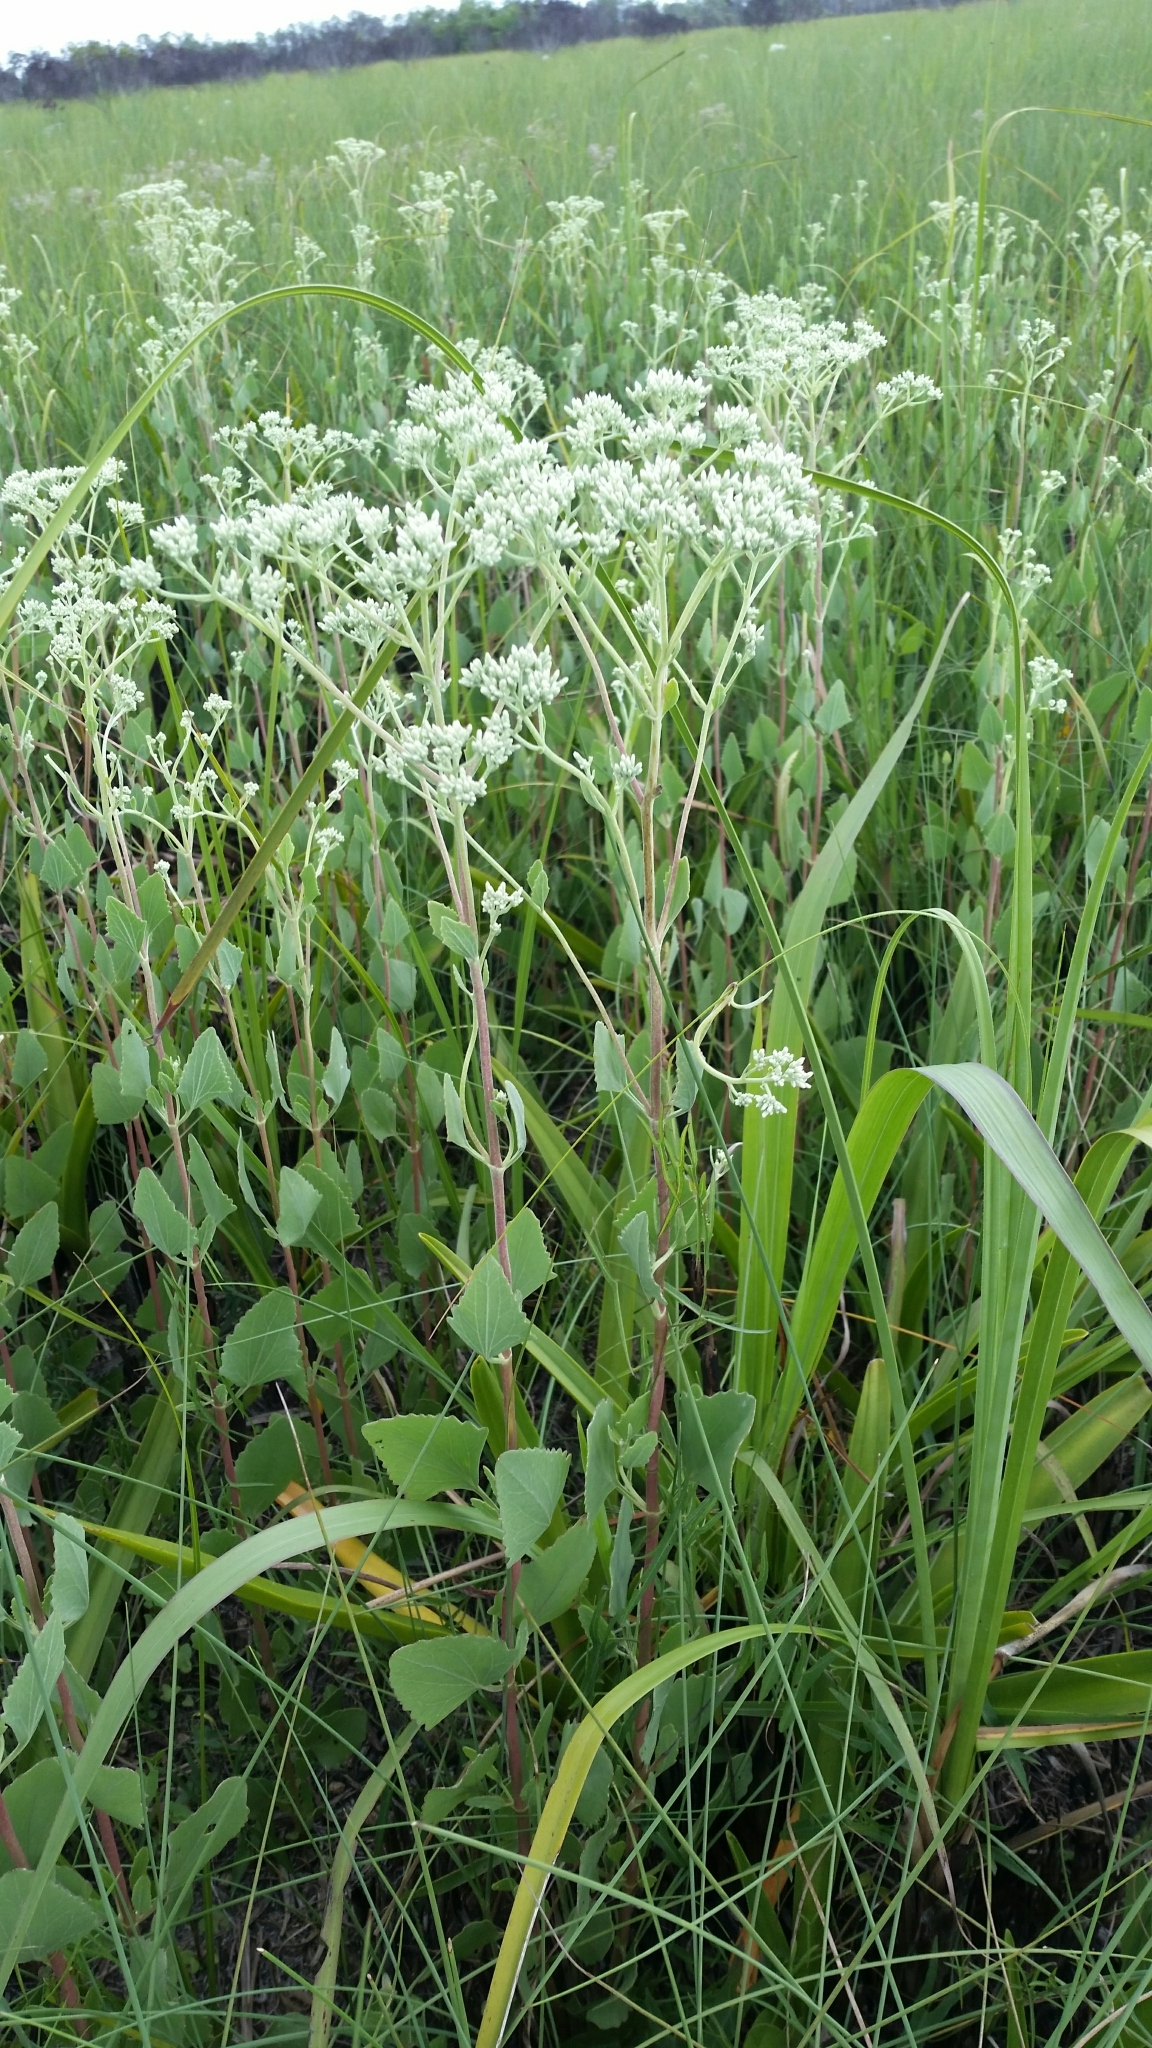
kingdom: Plantae
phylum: Tracheophyta
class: Magnoliopsida
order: Asterales
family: Asteraceae
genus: Eupatorium
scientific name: Eupatorium mikanioides
